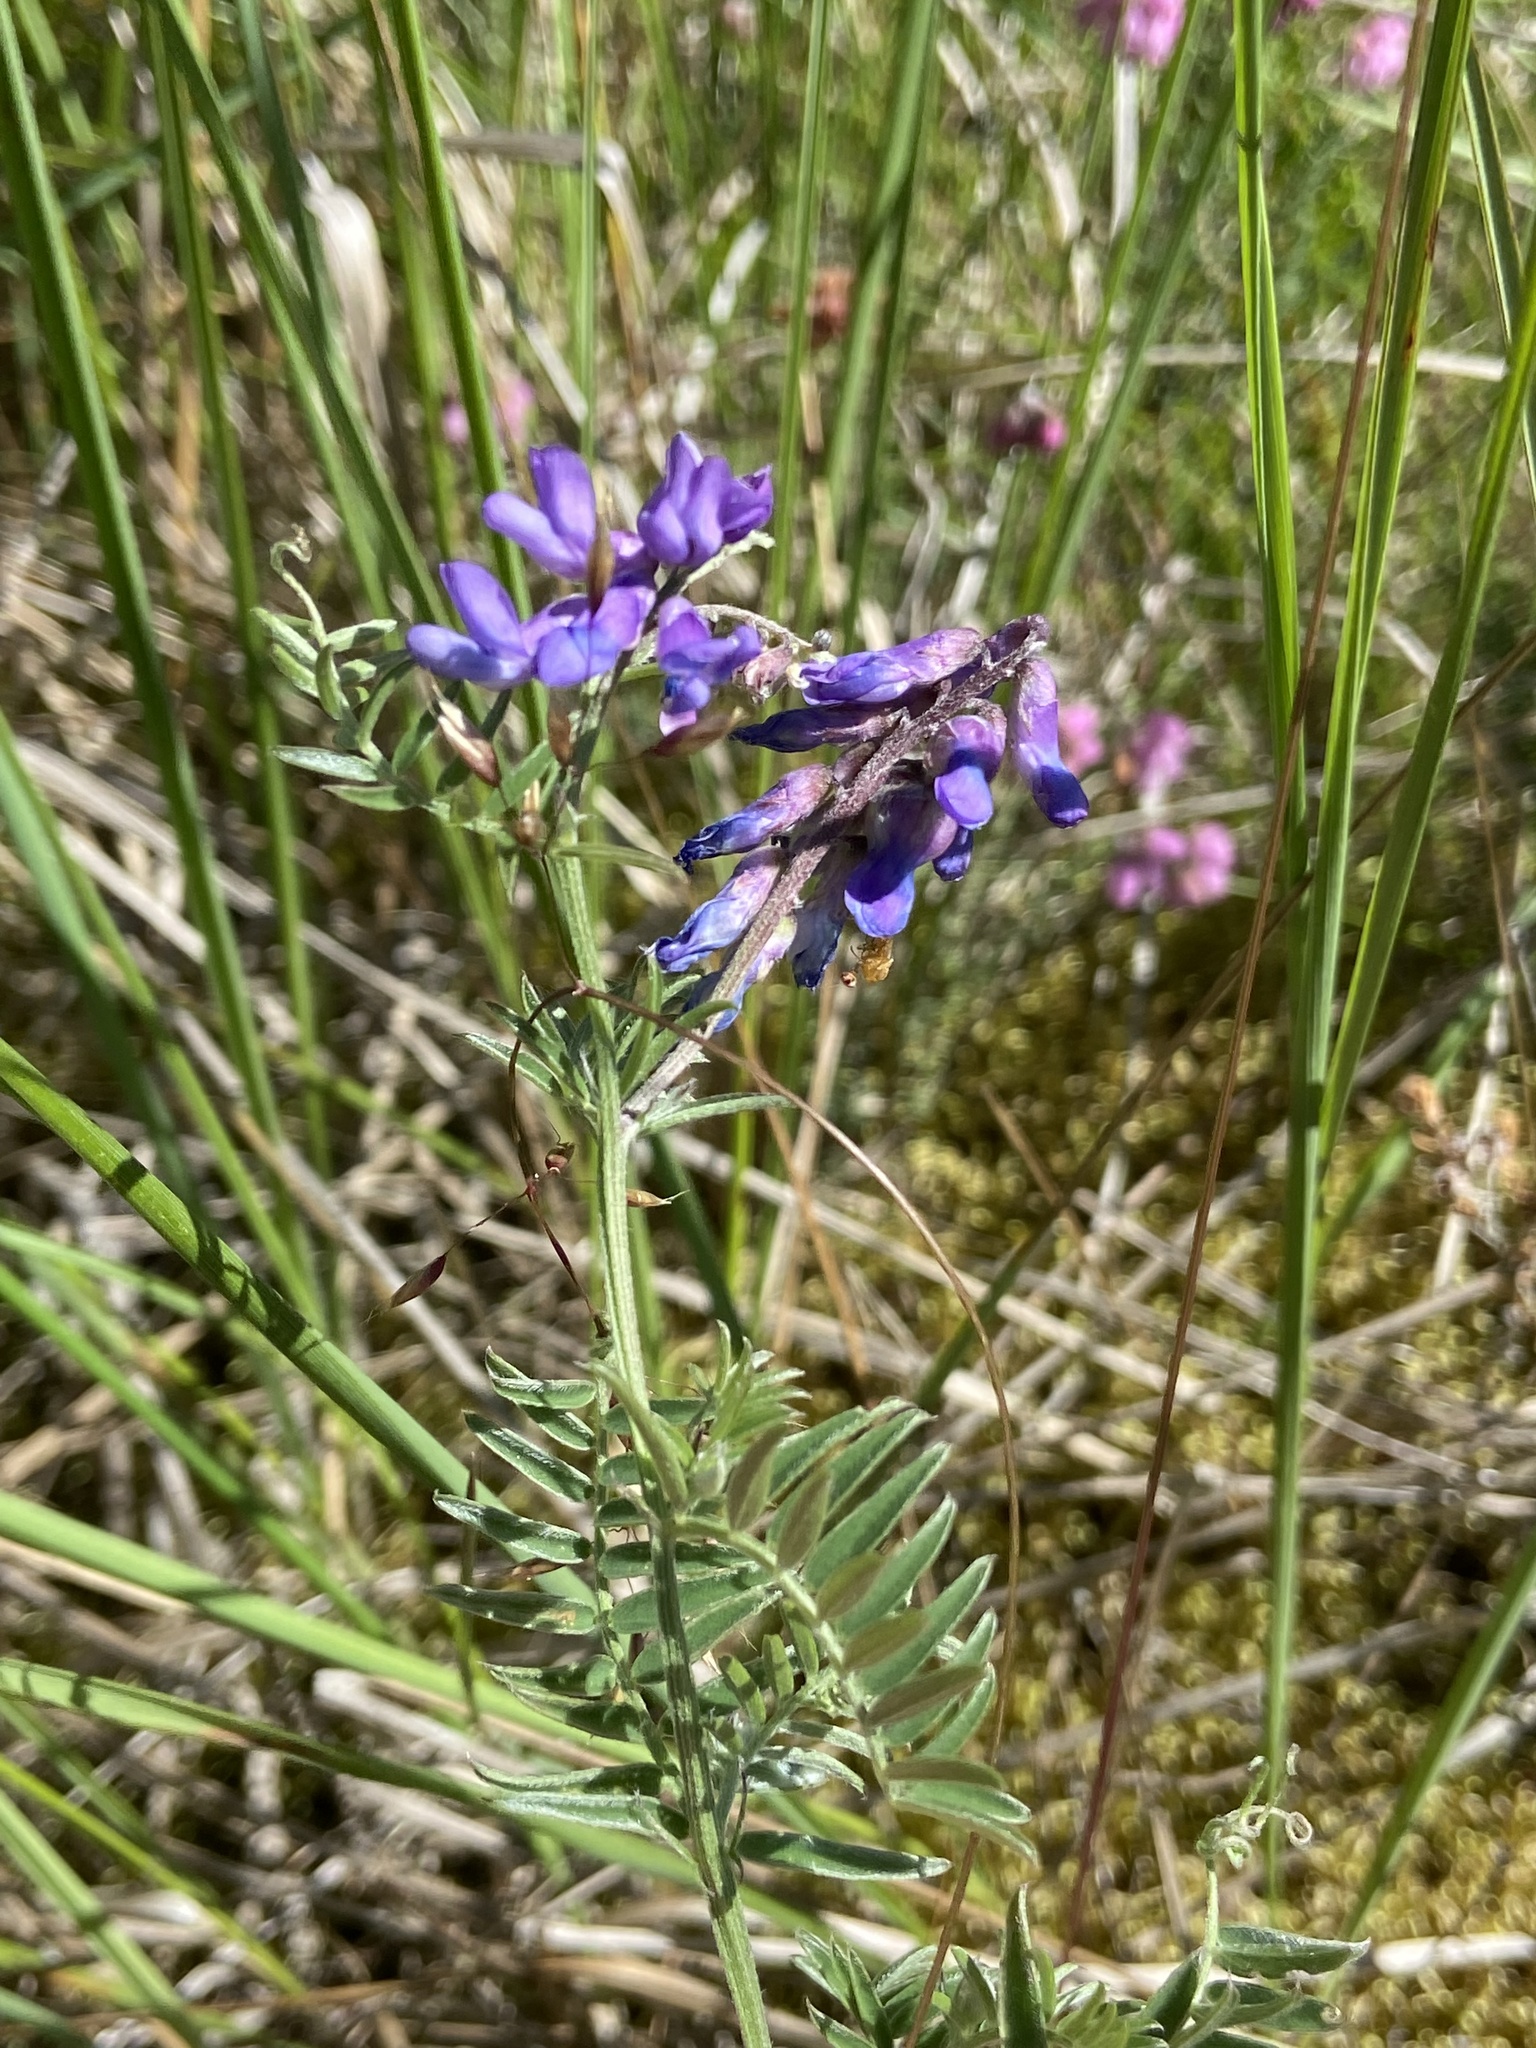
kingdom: Plantae
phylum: Tracheophyta
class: Magnoliopsida
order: Fabales
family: Fabaceae
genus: Vicia
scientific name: Vicia cracca
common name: Bird vetch
